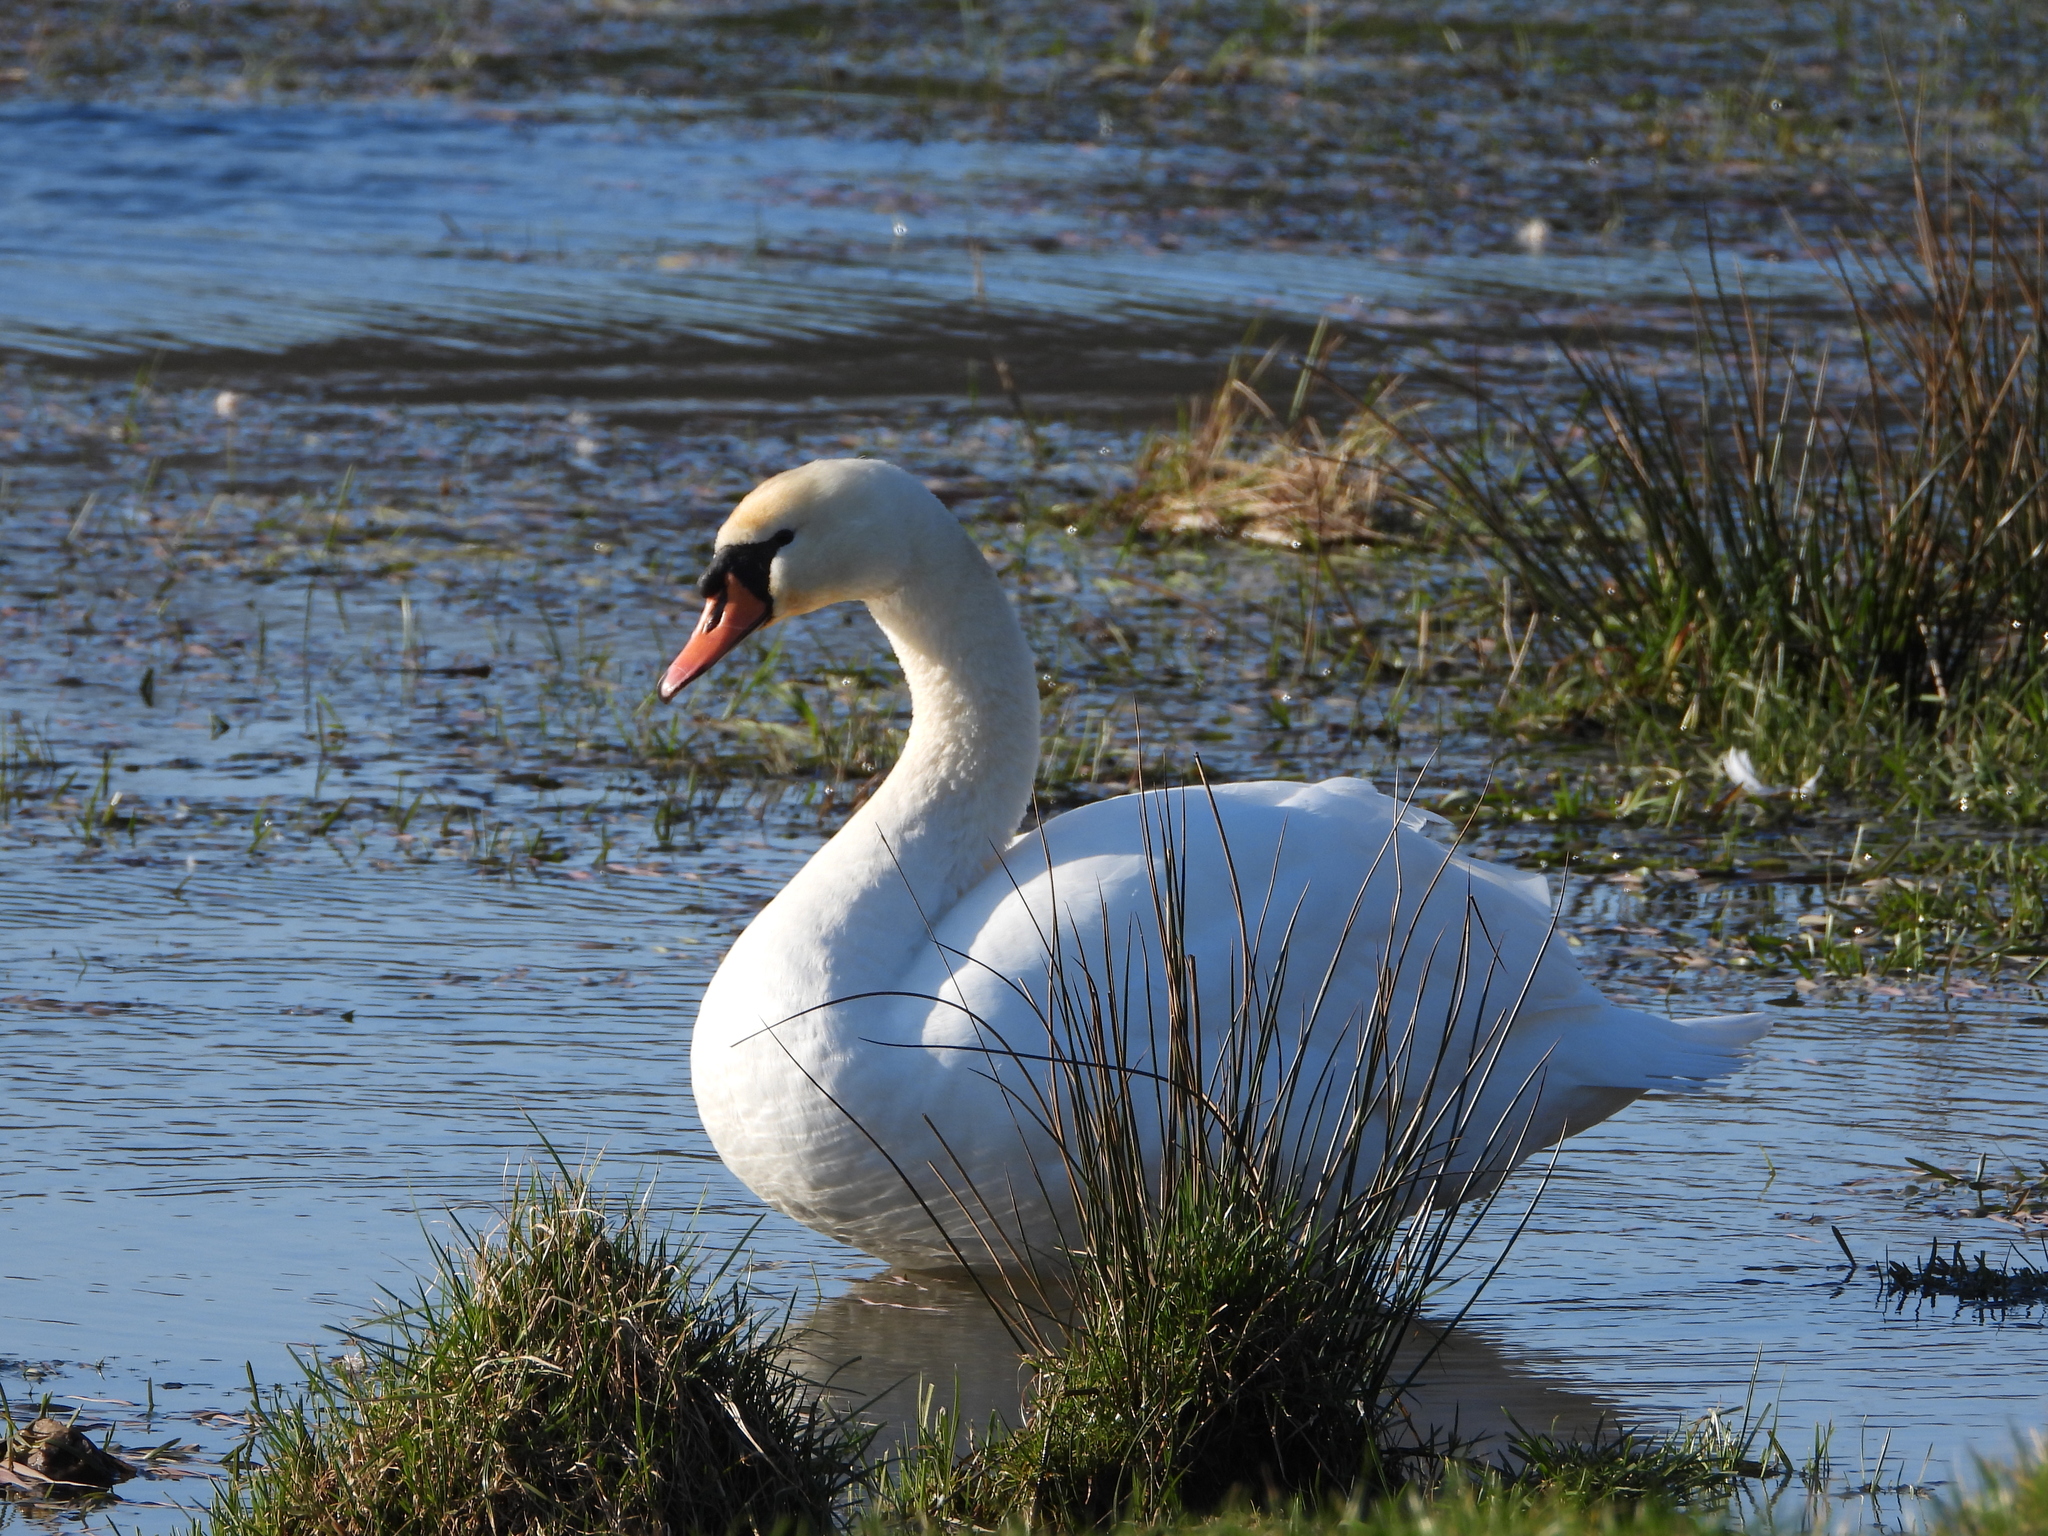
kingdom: Animalia
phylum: Chordata
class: Aves
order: Anseriformes
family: Anatidae
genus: Cygnus
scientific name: Cygnus olor
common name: Mute swan
